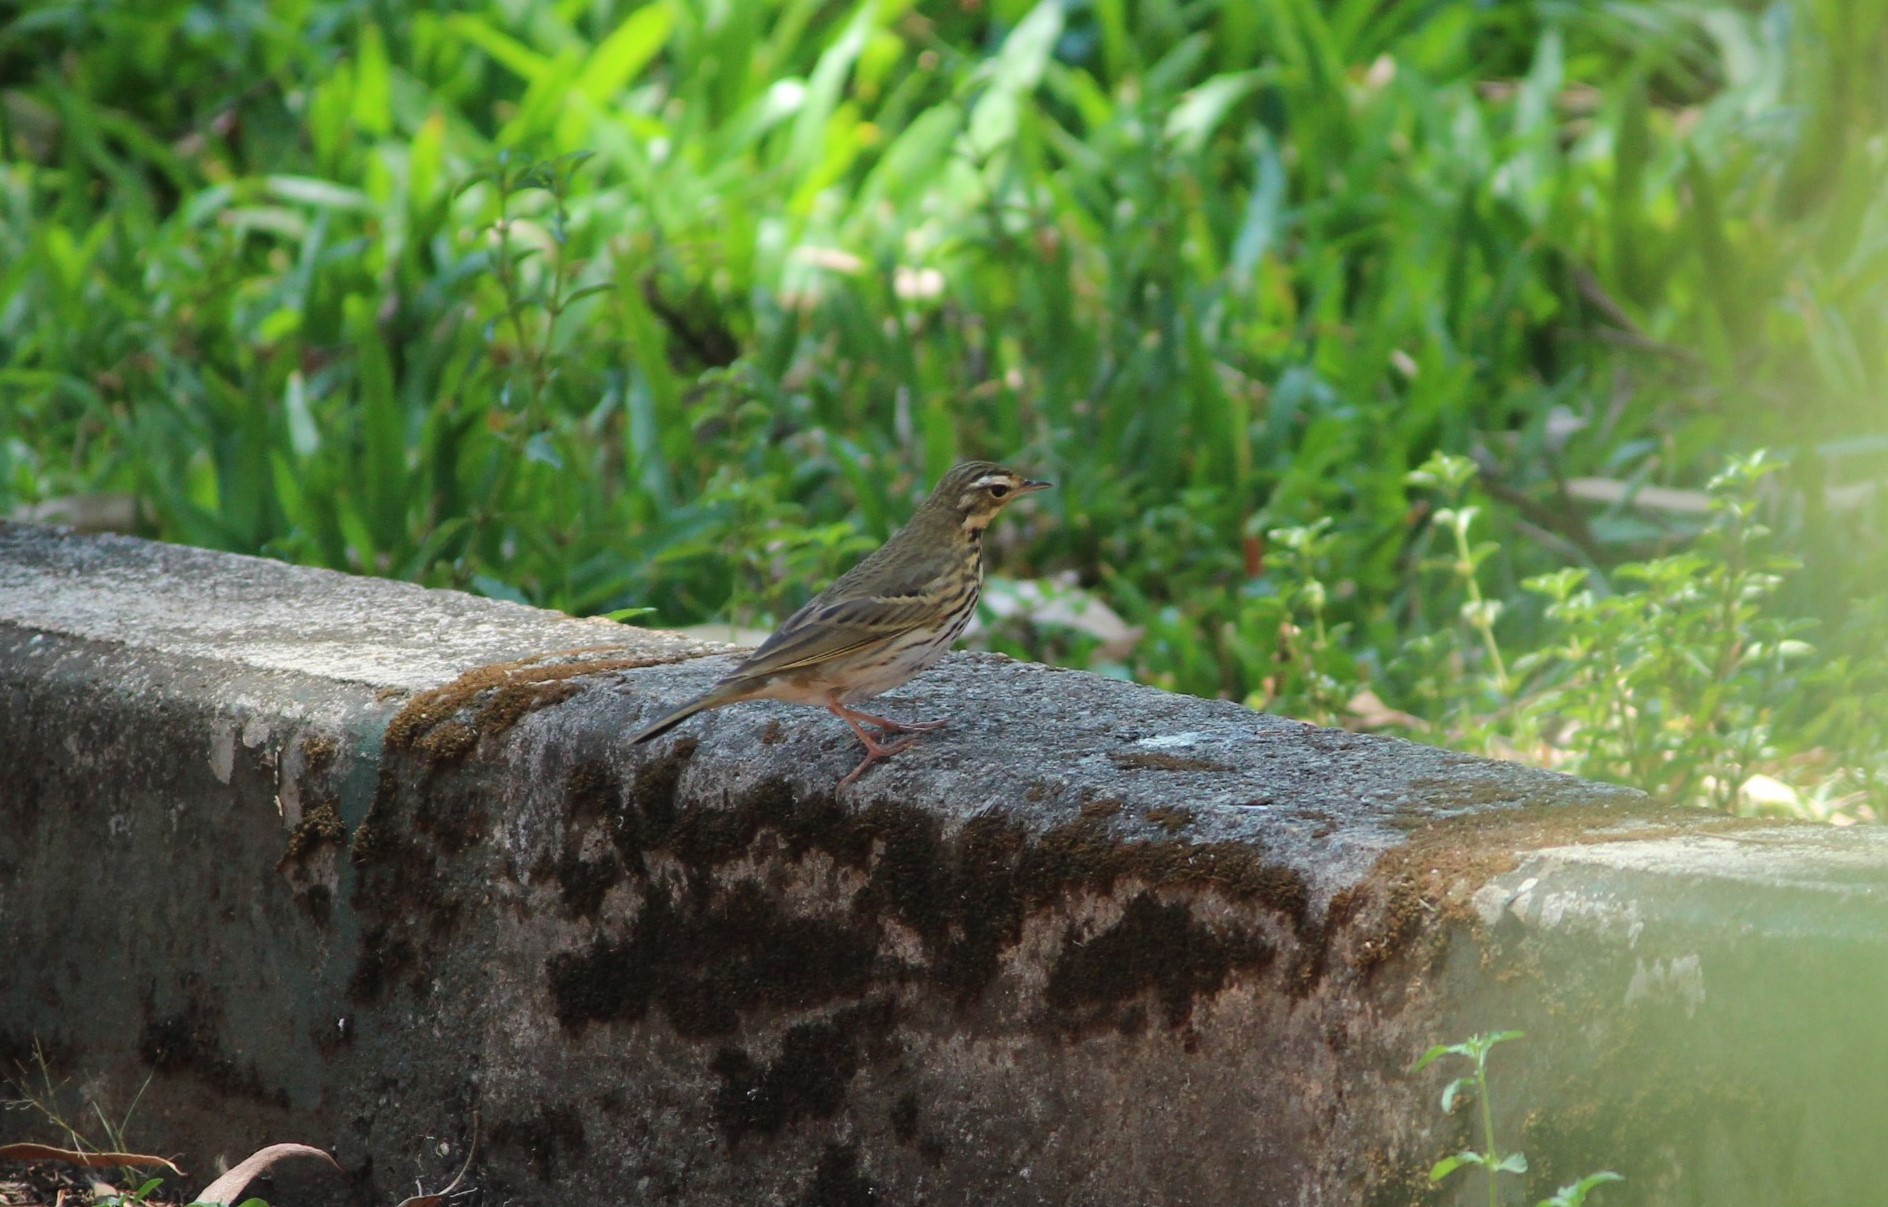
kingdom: Animalia
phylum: Chordata
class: Aves
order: Passeriformes
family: Motacillidae
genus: Anthus
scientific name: Anthus hodgsoni
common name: Olive-backed pipit
